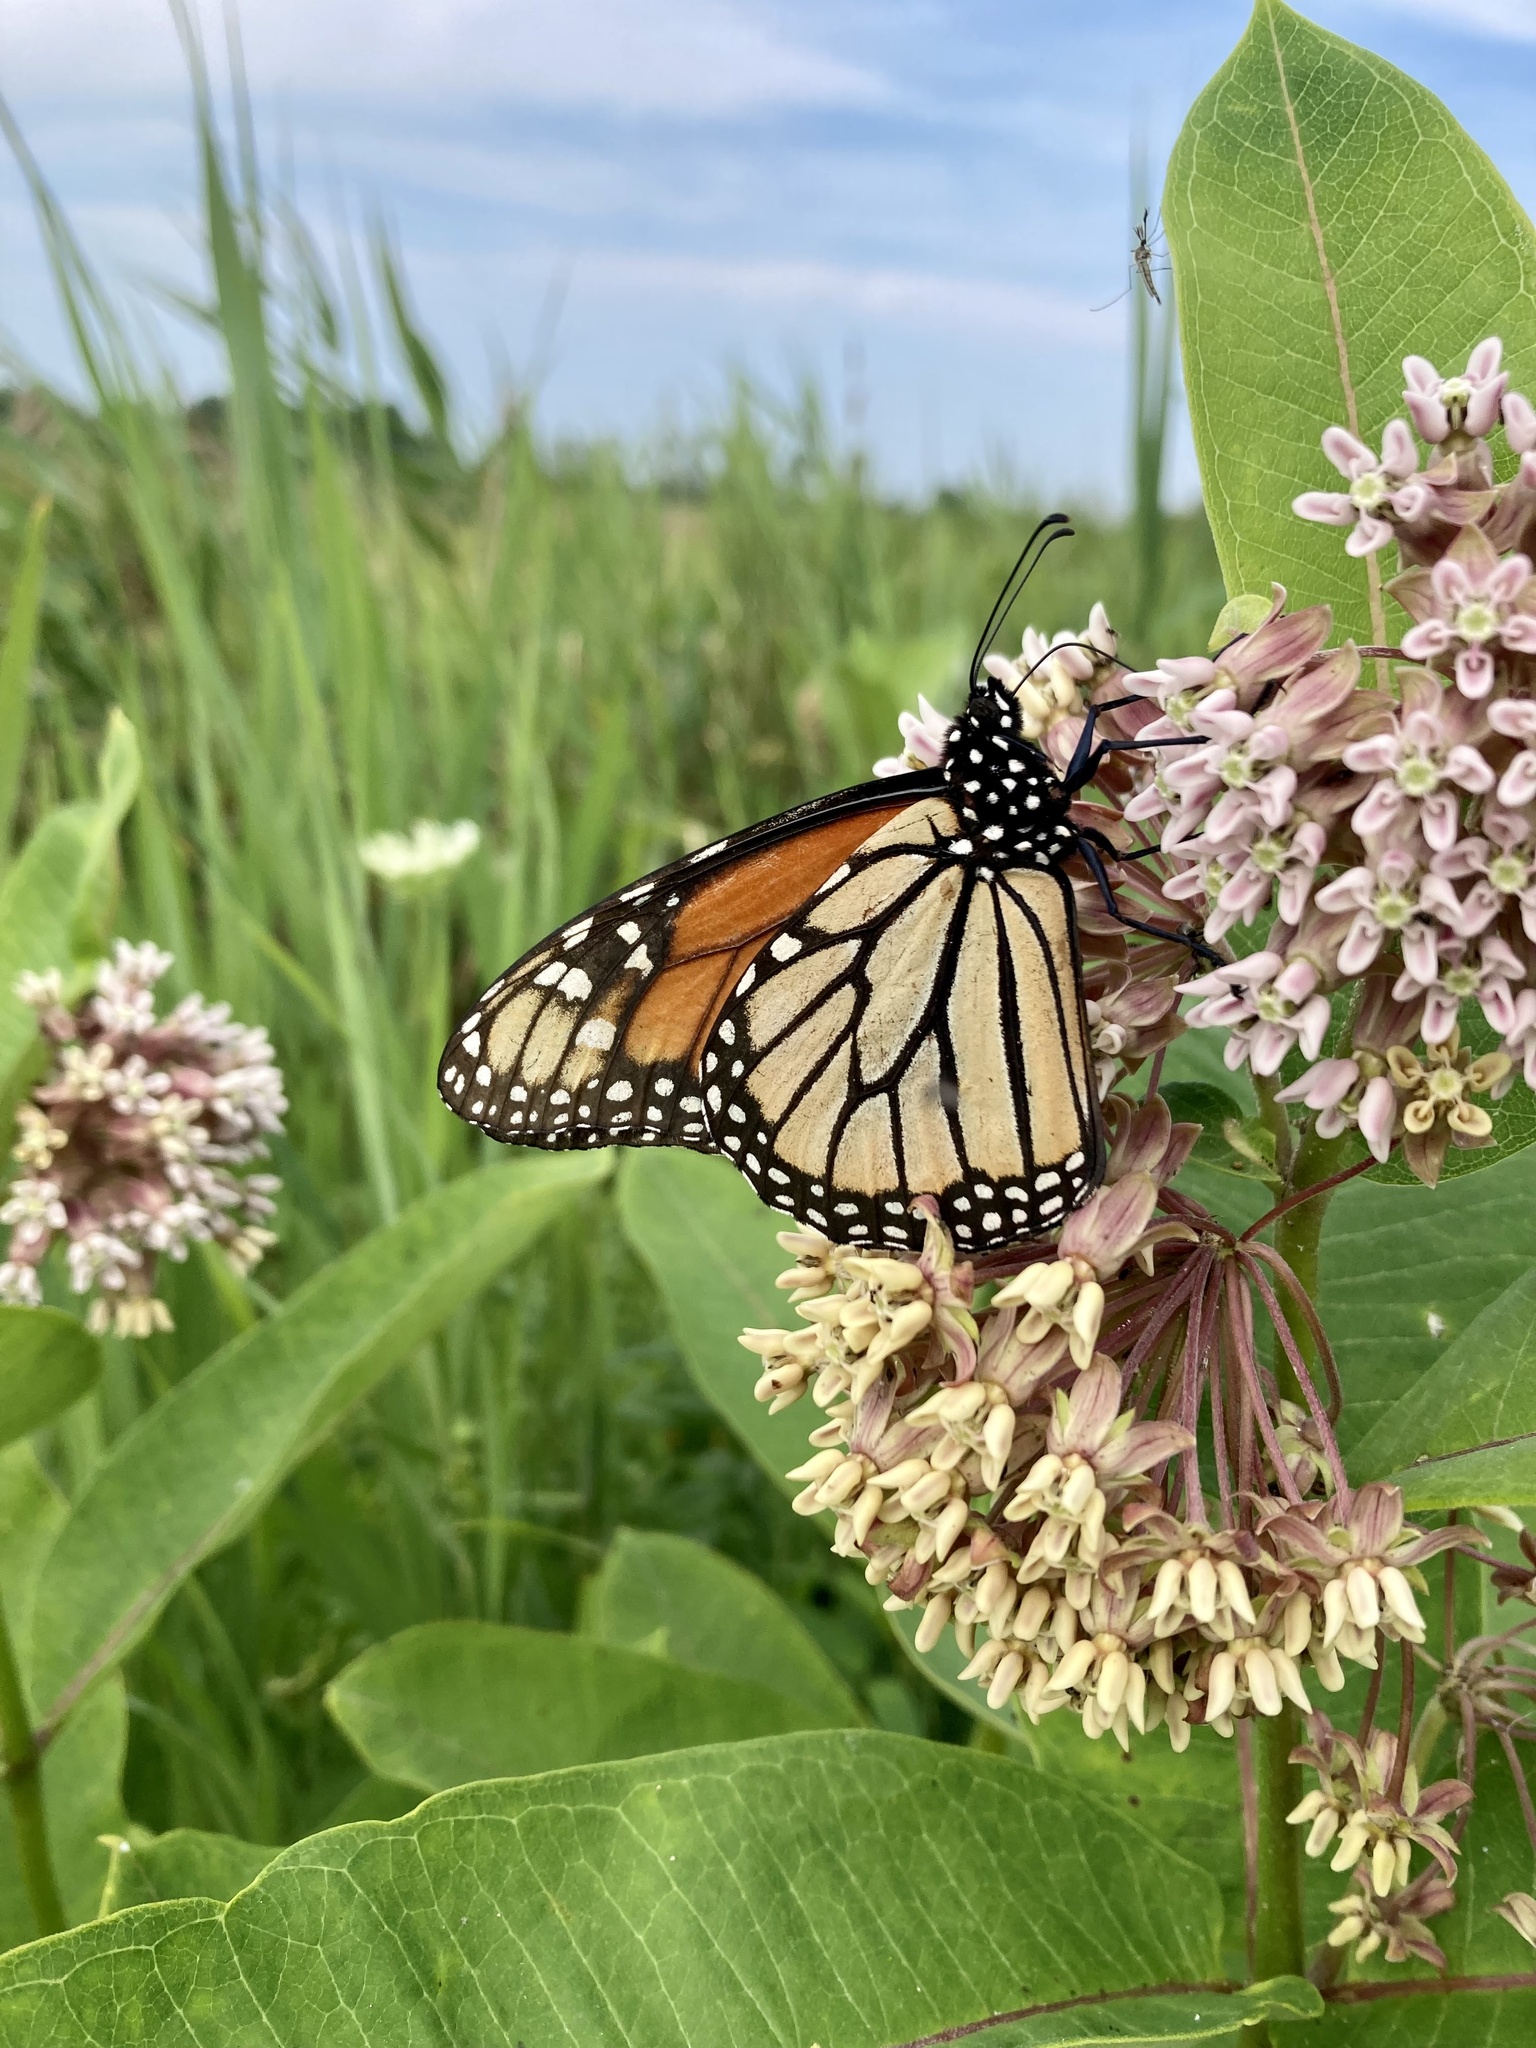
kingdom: Animalia
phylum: Arthropoda
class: Insecta
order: Lepidoptera
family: Nymphalidae
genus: Danaus
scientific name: Danaus plexippus
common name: Monarch
